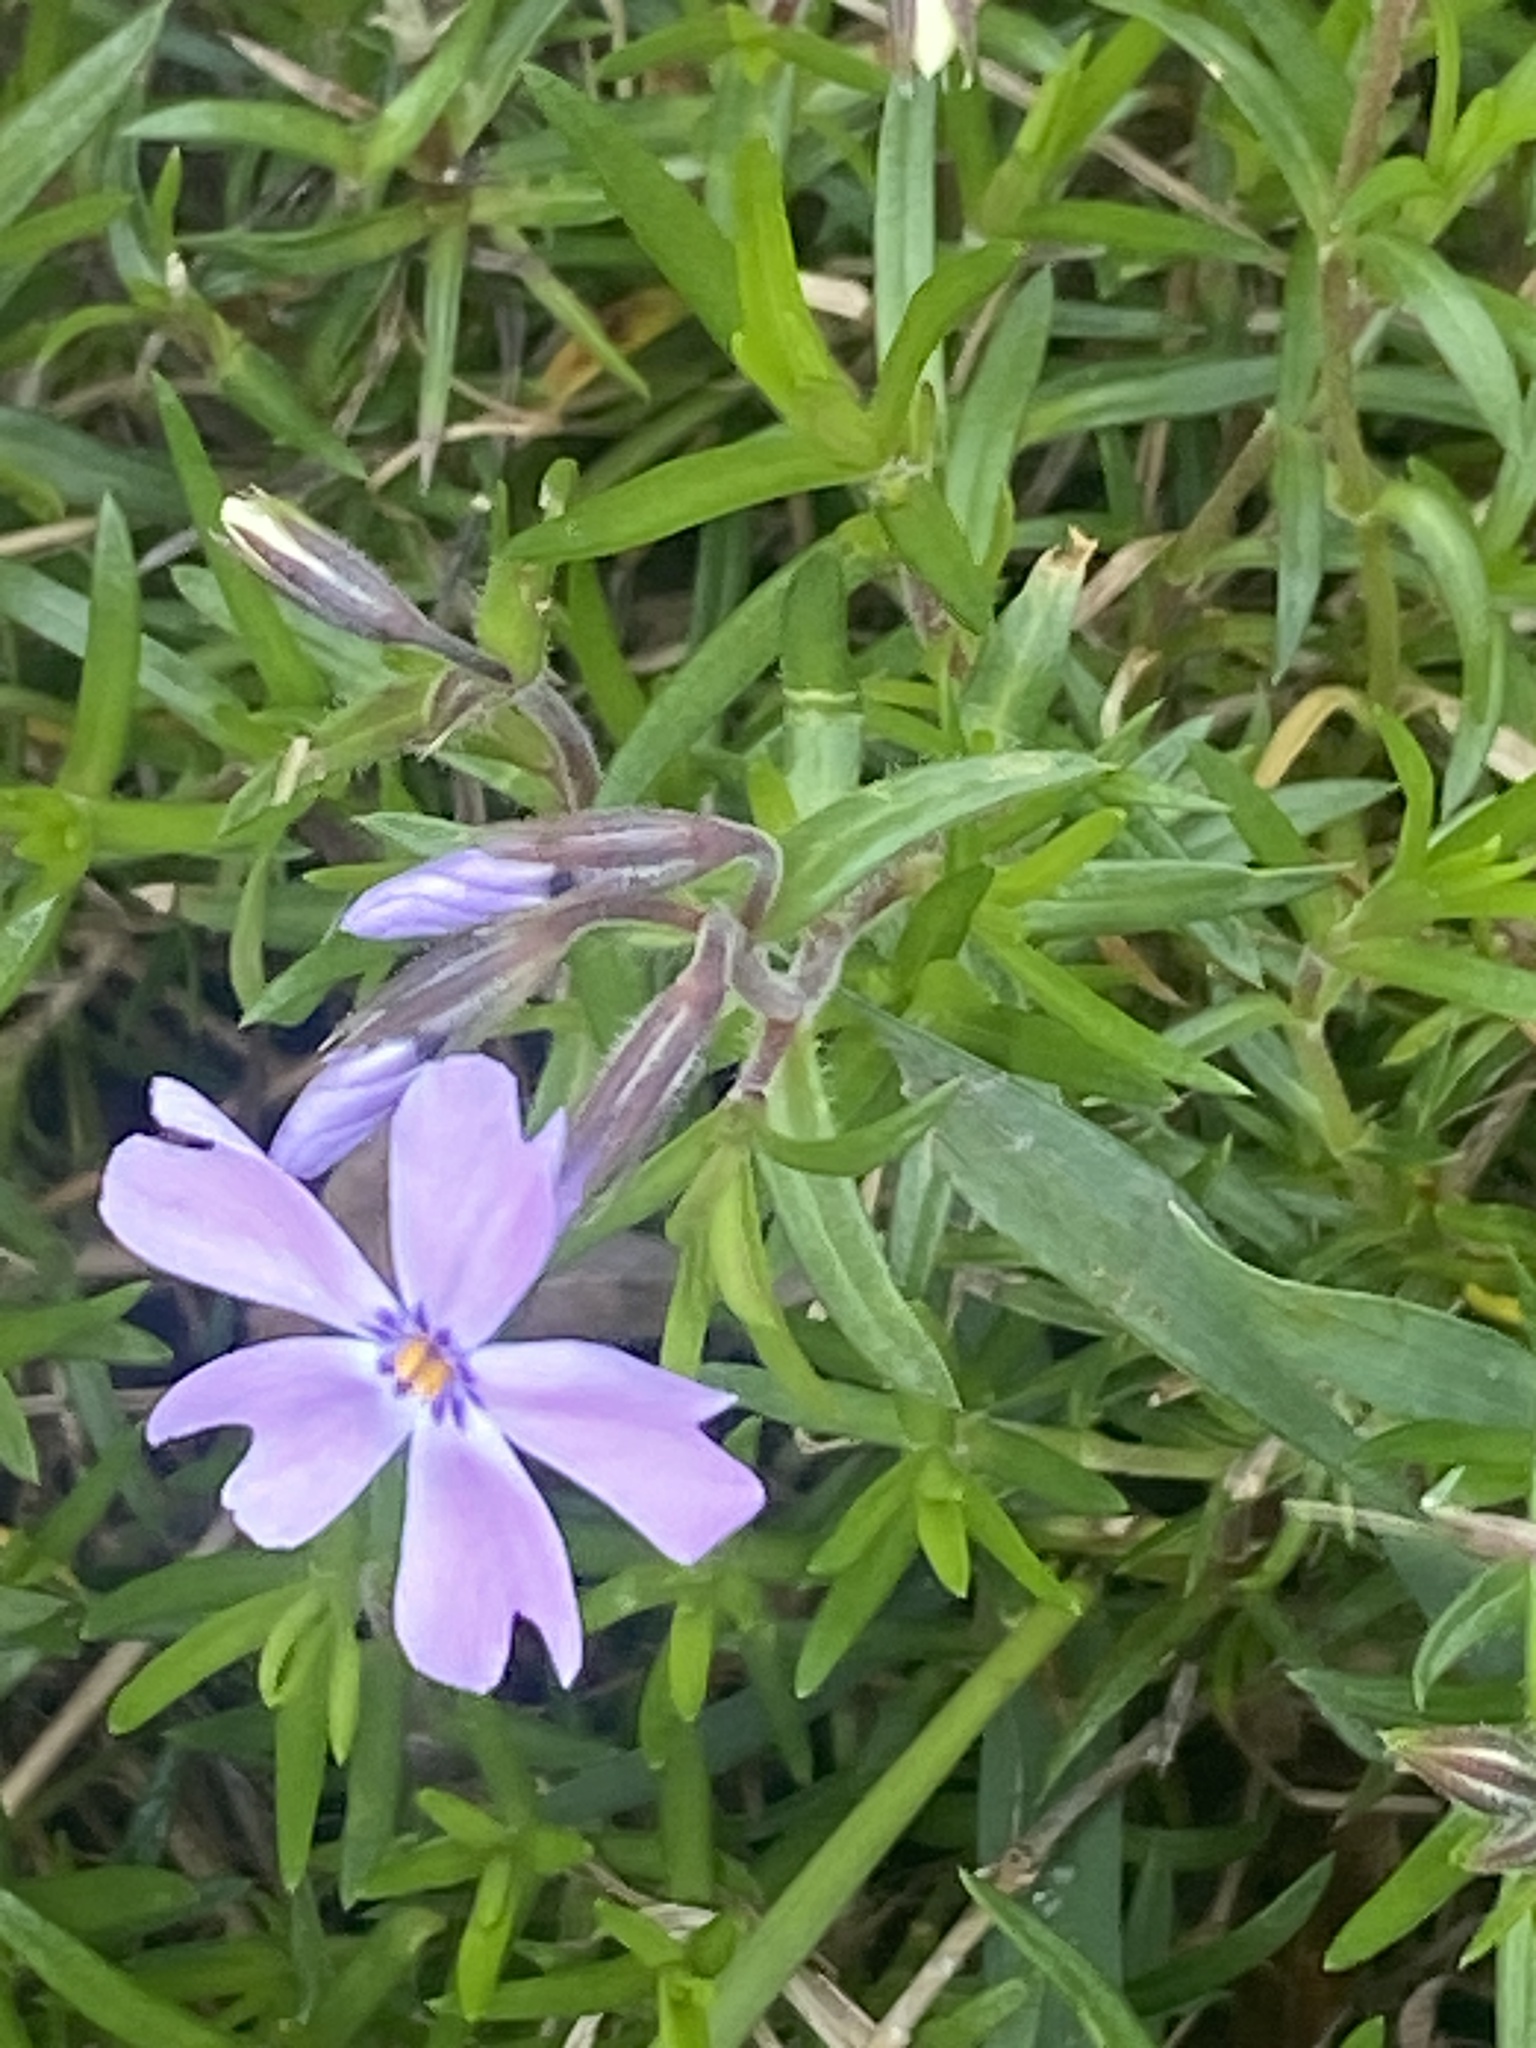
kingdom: Plantae
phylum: Tracheophyta
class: Magnoliopsida
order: Ericales
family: Polemoniaceae
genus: Phlox
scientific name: Phlox subulata
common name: Moss phlox
